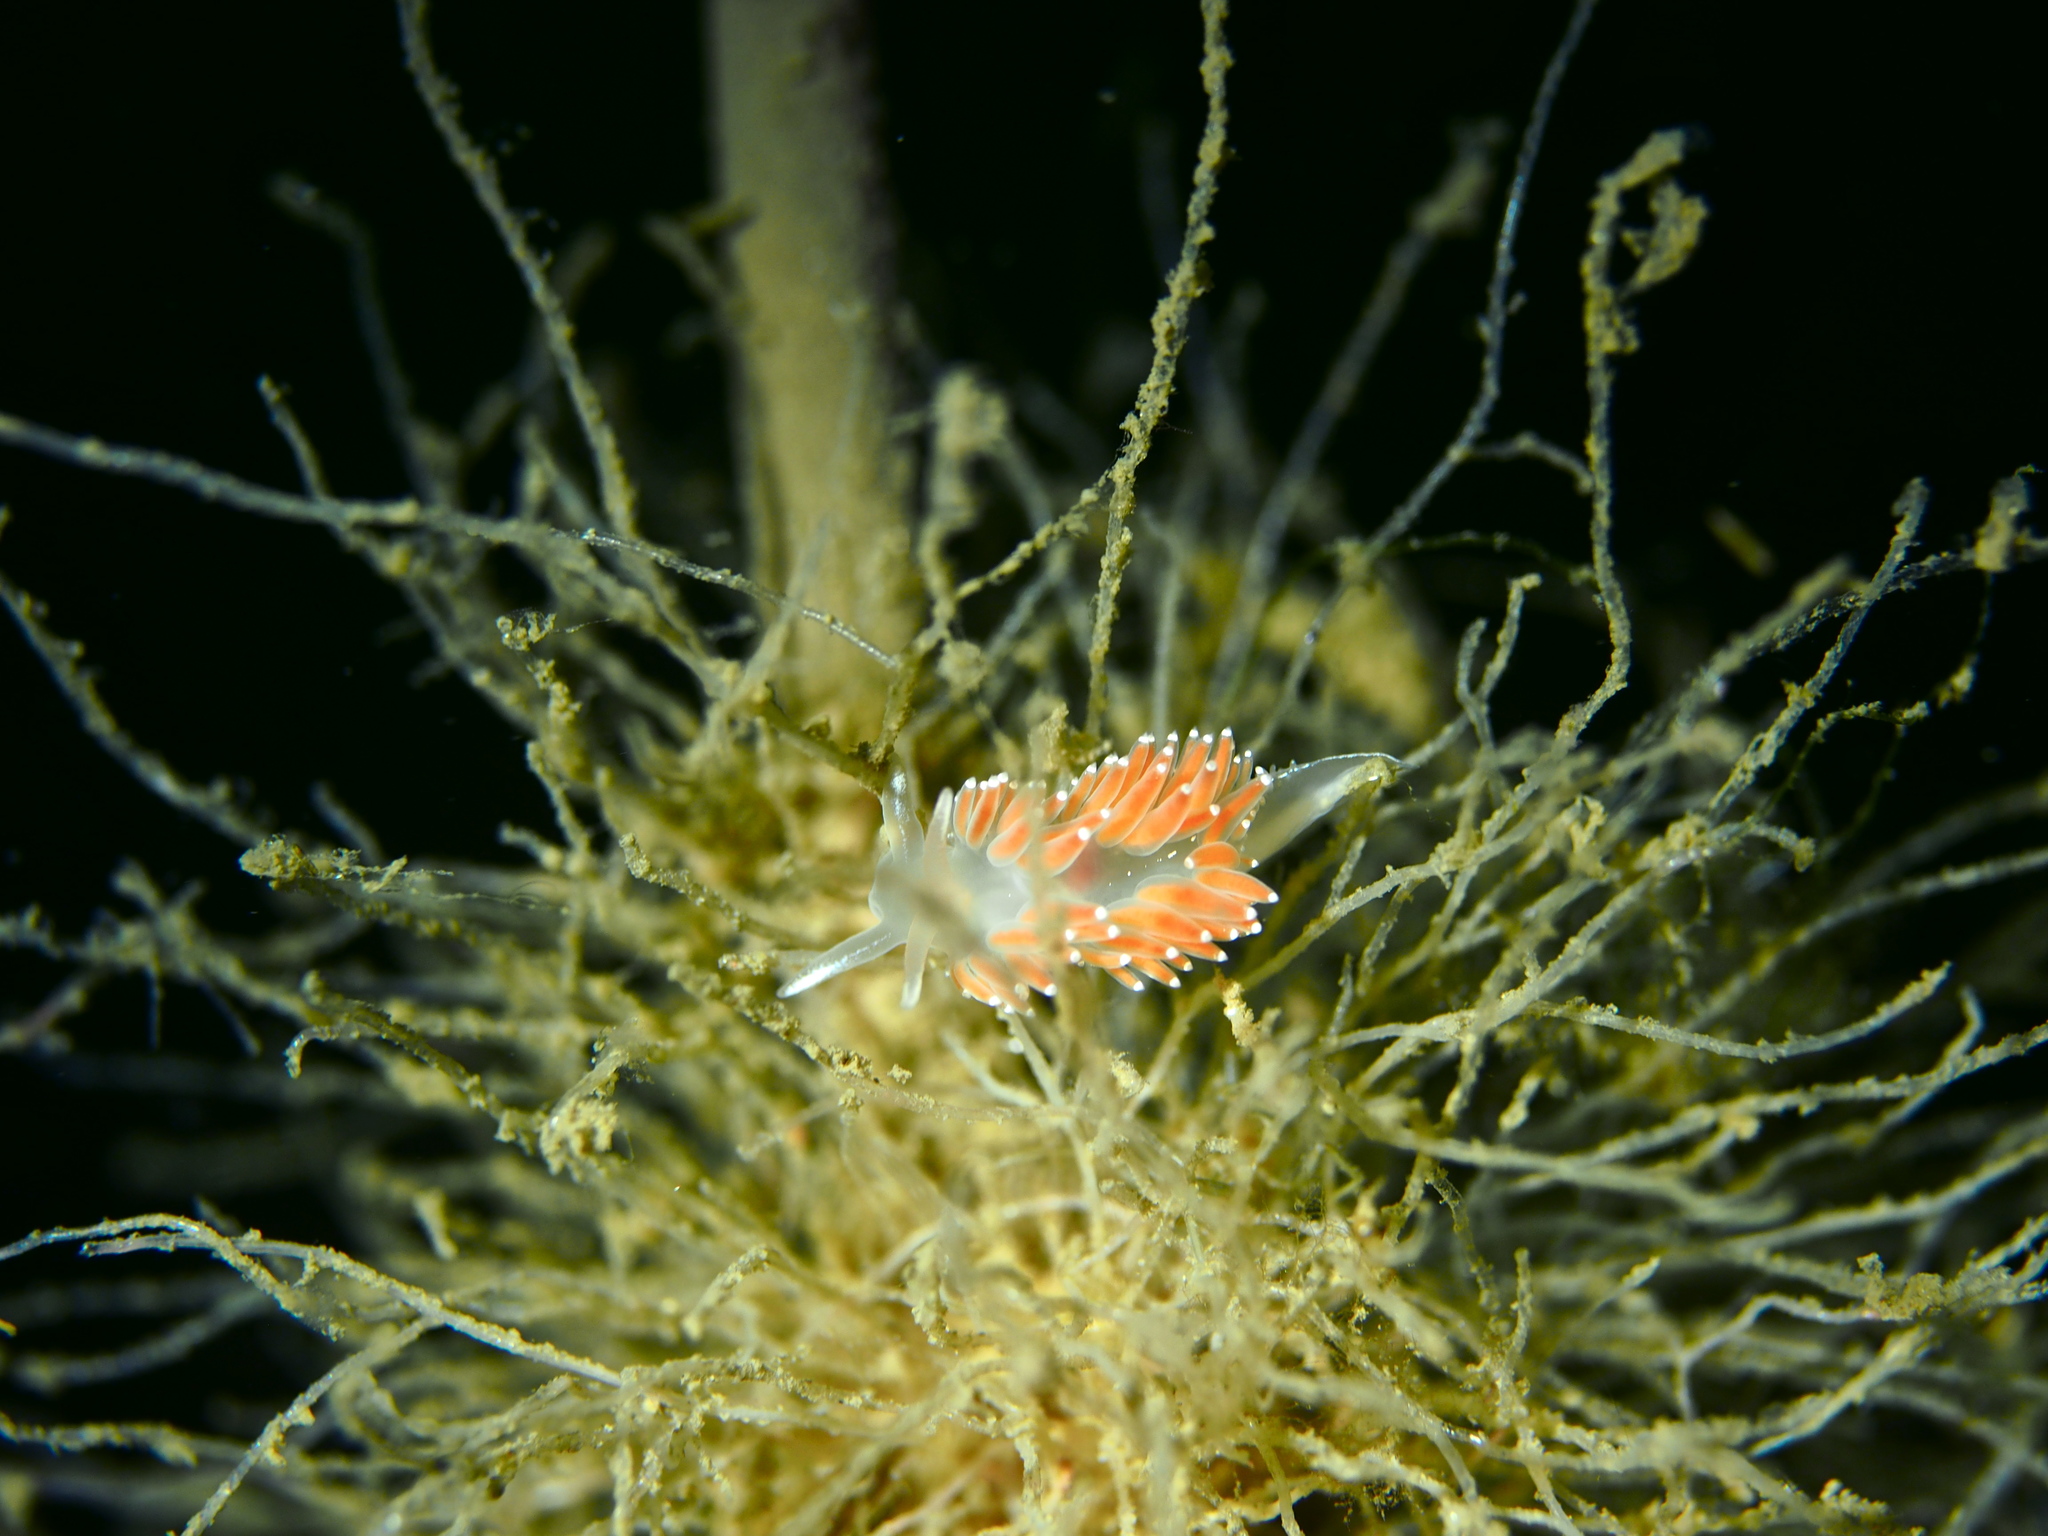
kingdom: Animalia
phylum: Mollusca
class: Gastropoda
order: Nudibranchia
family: Coryphellidae
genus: Coryphella
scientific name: Coryphella verrucosa
